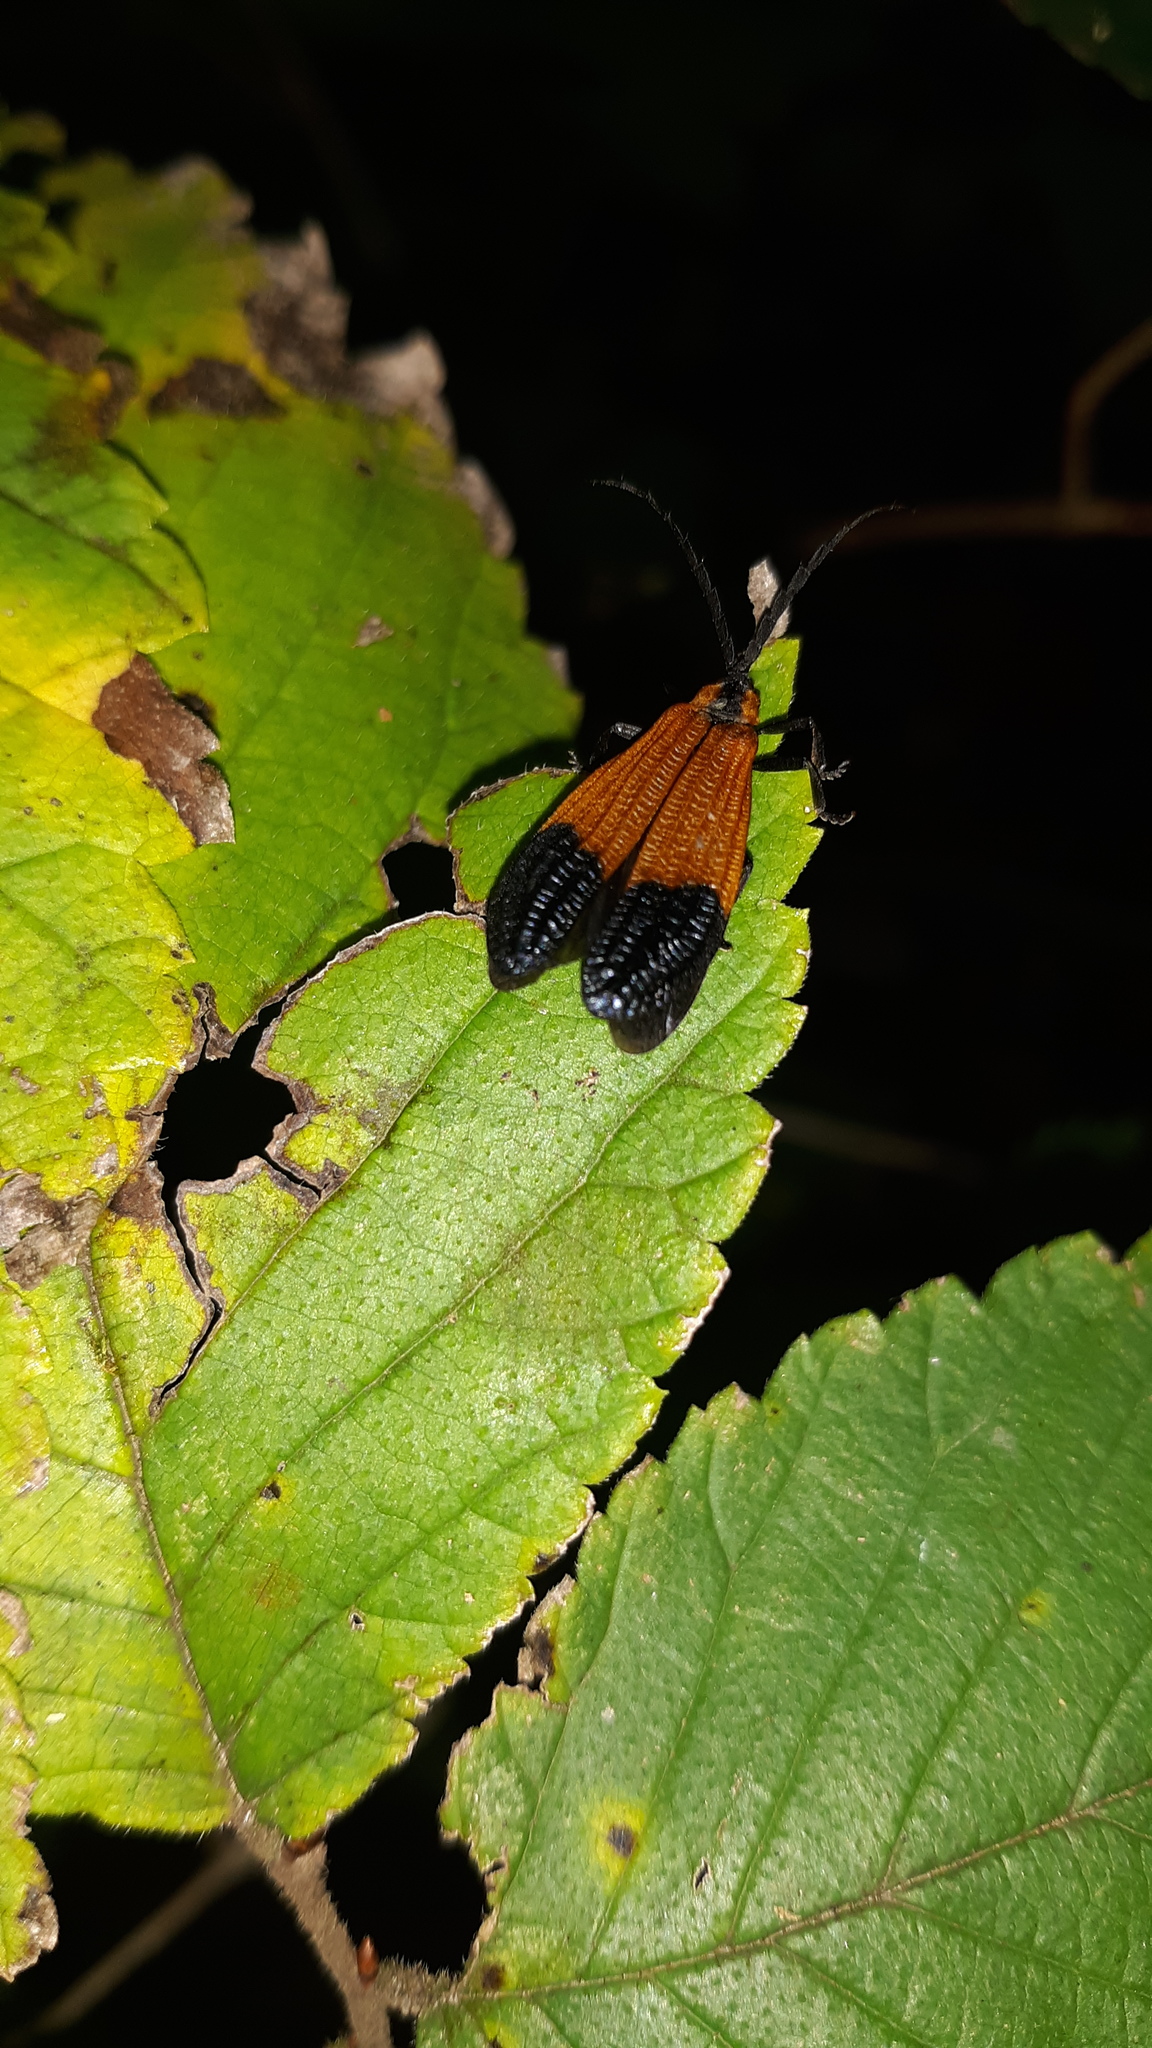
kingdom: Animalia
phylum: Arthropoda
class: Insecta
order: Coleoptera
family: Lycidae
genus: Calopteron
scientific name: Calopteron terminale
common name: End band net-winged beetle
